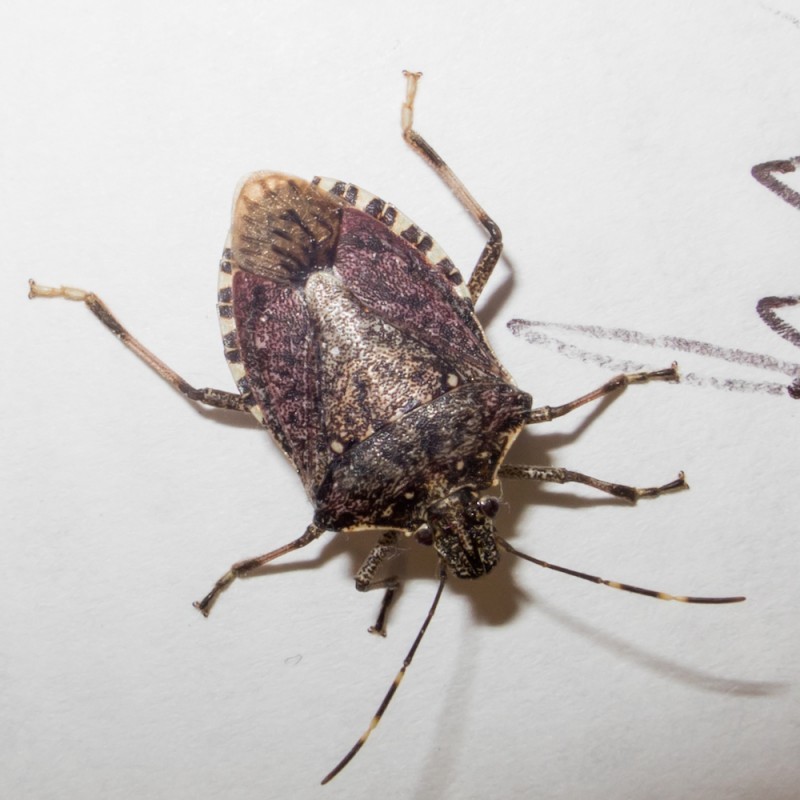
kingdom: Animalia
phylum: Arthropoda
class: Insecta
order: Hemiptera
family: Pentatomidae
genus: Halyomorpha
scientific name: Halyomorpha halys
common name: Brown marmorated stink bug
